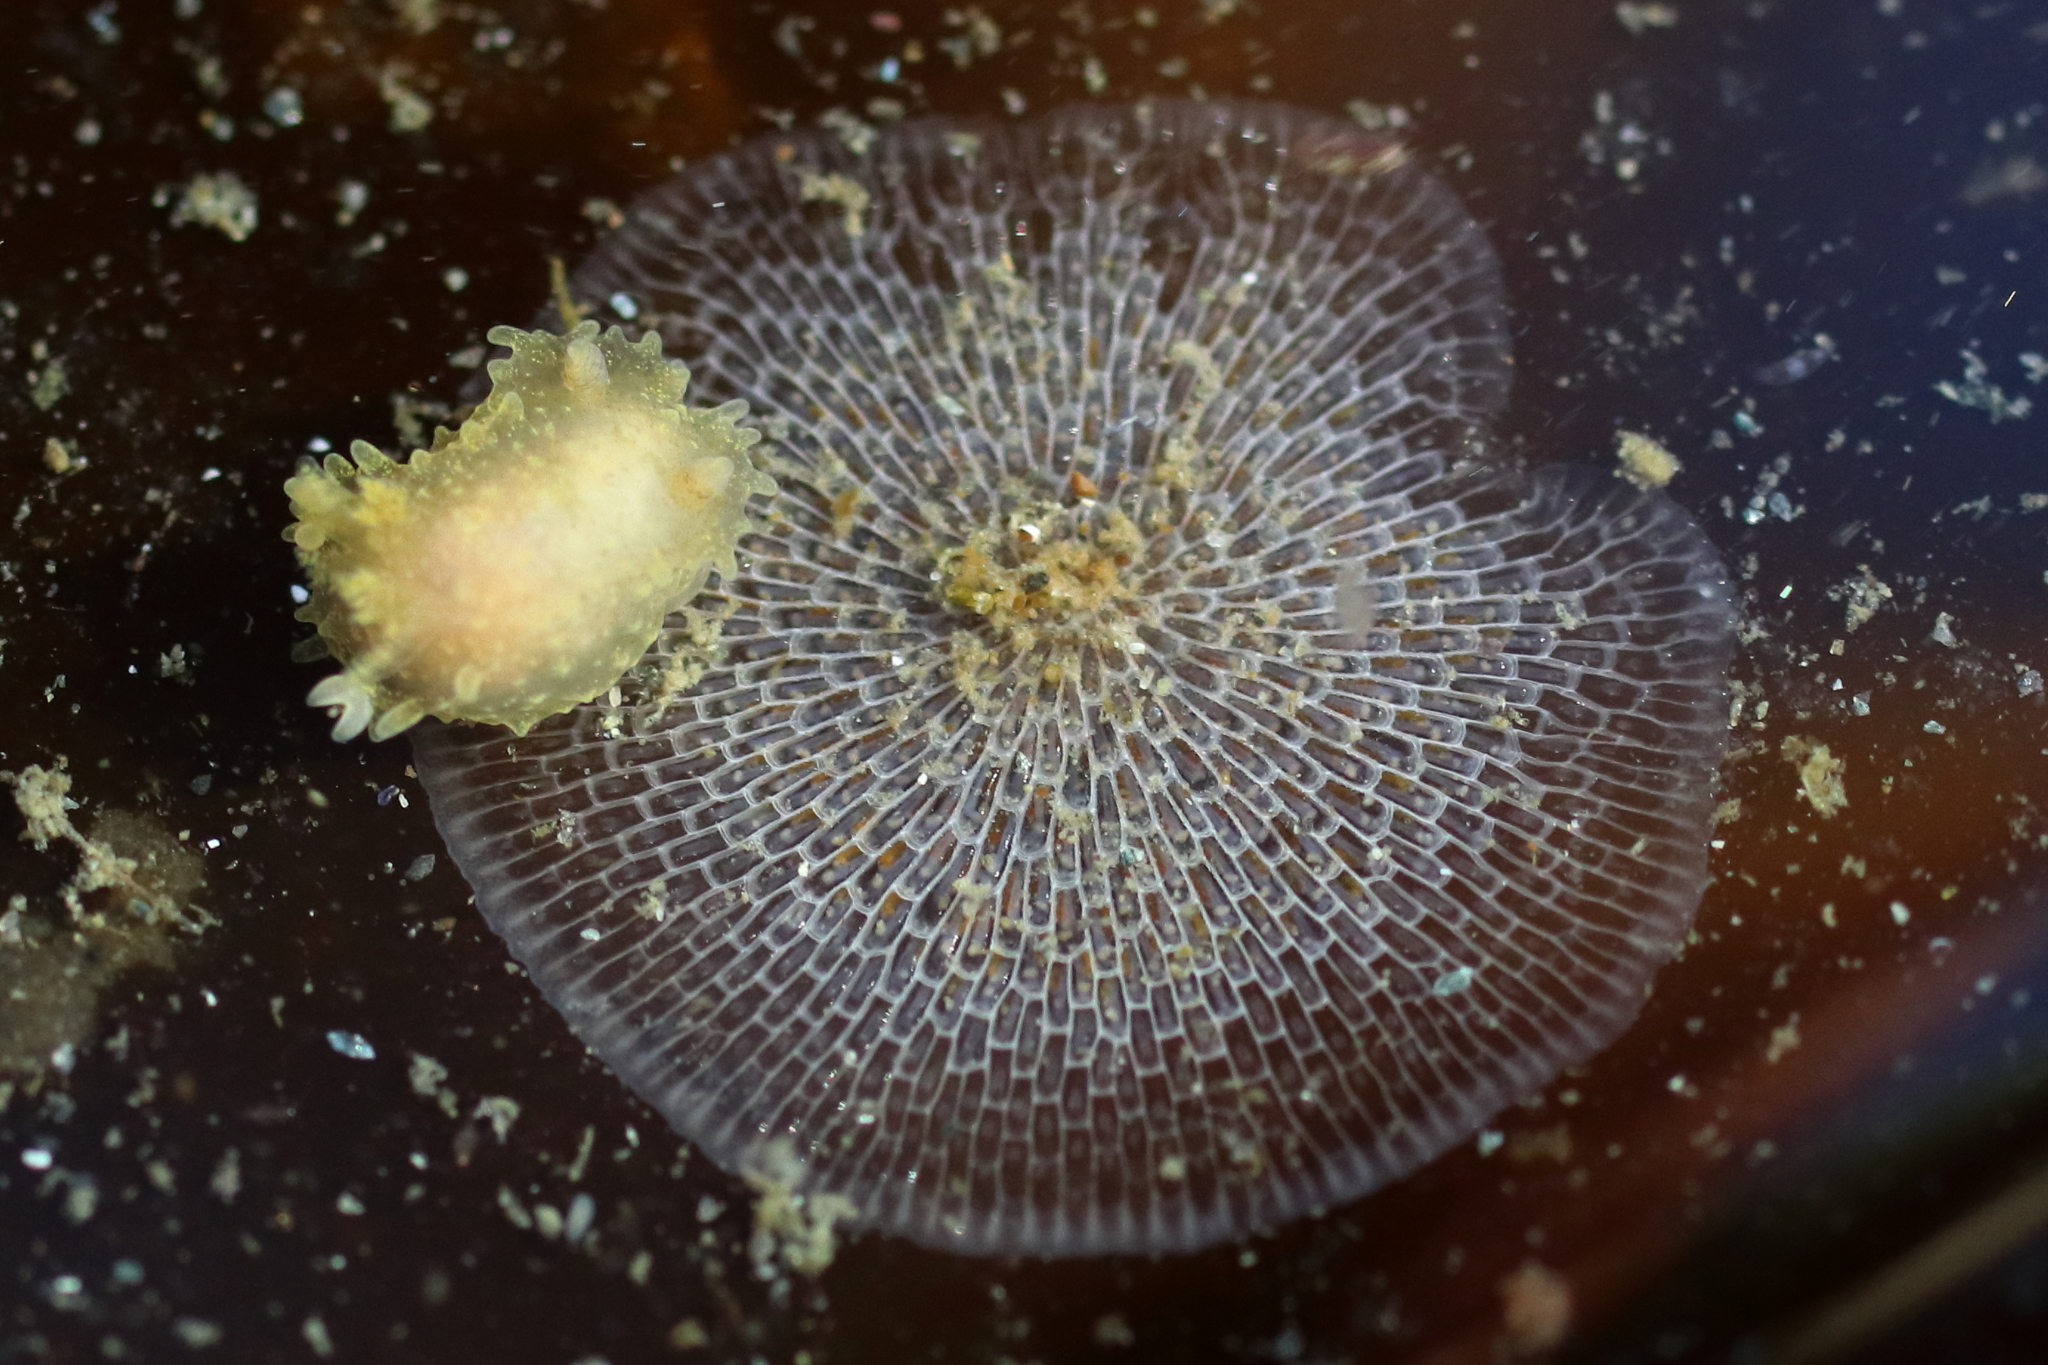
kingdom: Animalia
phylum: Mollusca
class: Gastropoda
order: Nudibranchia
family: Polyceridae
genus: Palio
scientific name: Palio dubia
